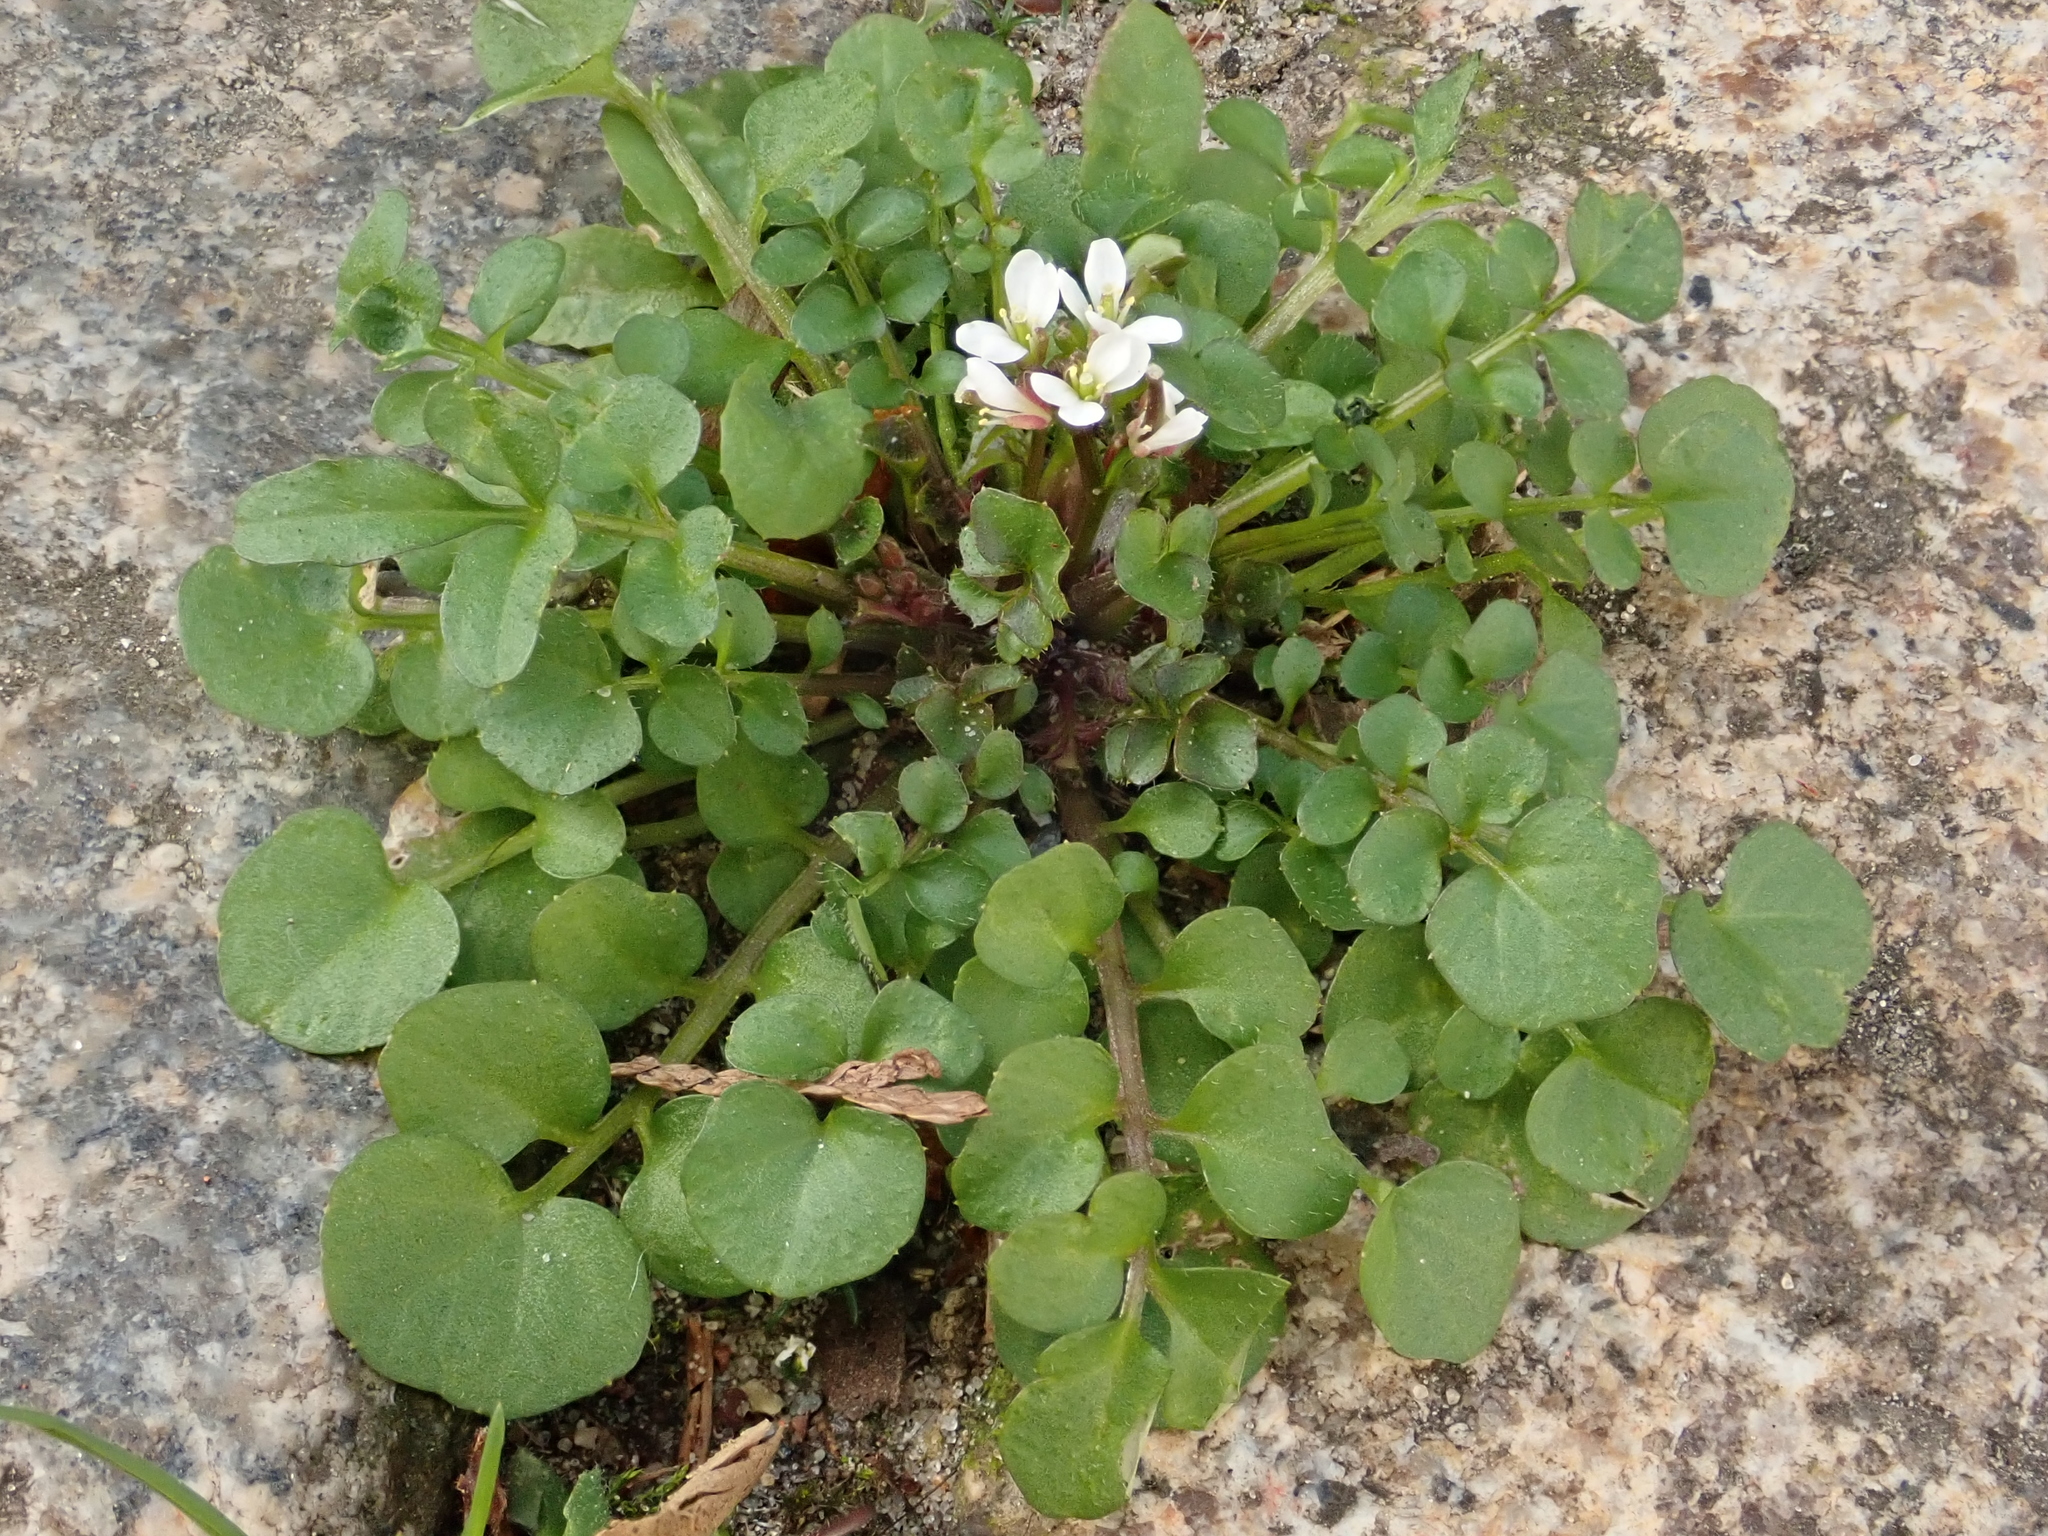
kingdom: Plantae
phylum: Tracheophyta
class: Magnoliopsida
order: Brassicales
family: Brassicaceae
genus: Cardamine
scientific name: Cardamine hirsuta
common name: Hairy bittercress
